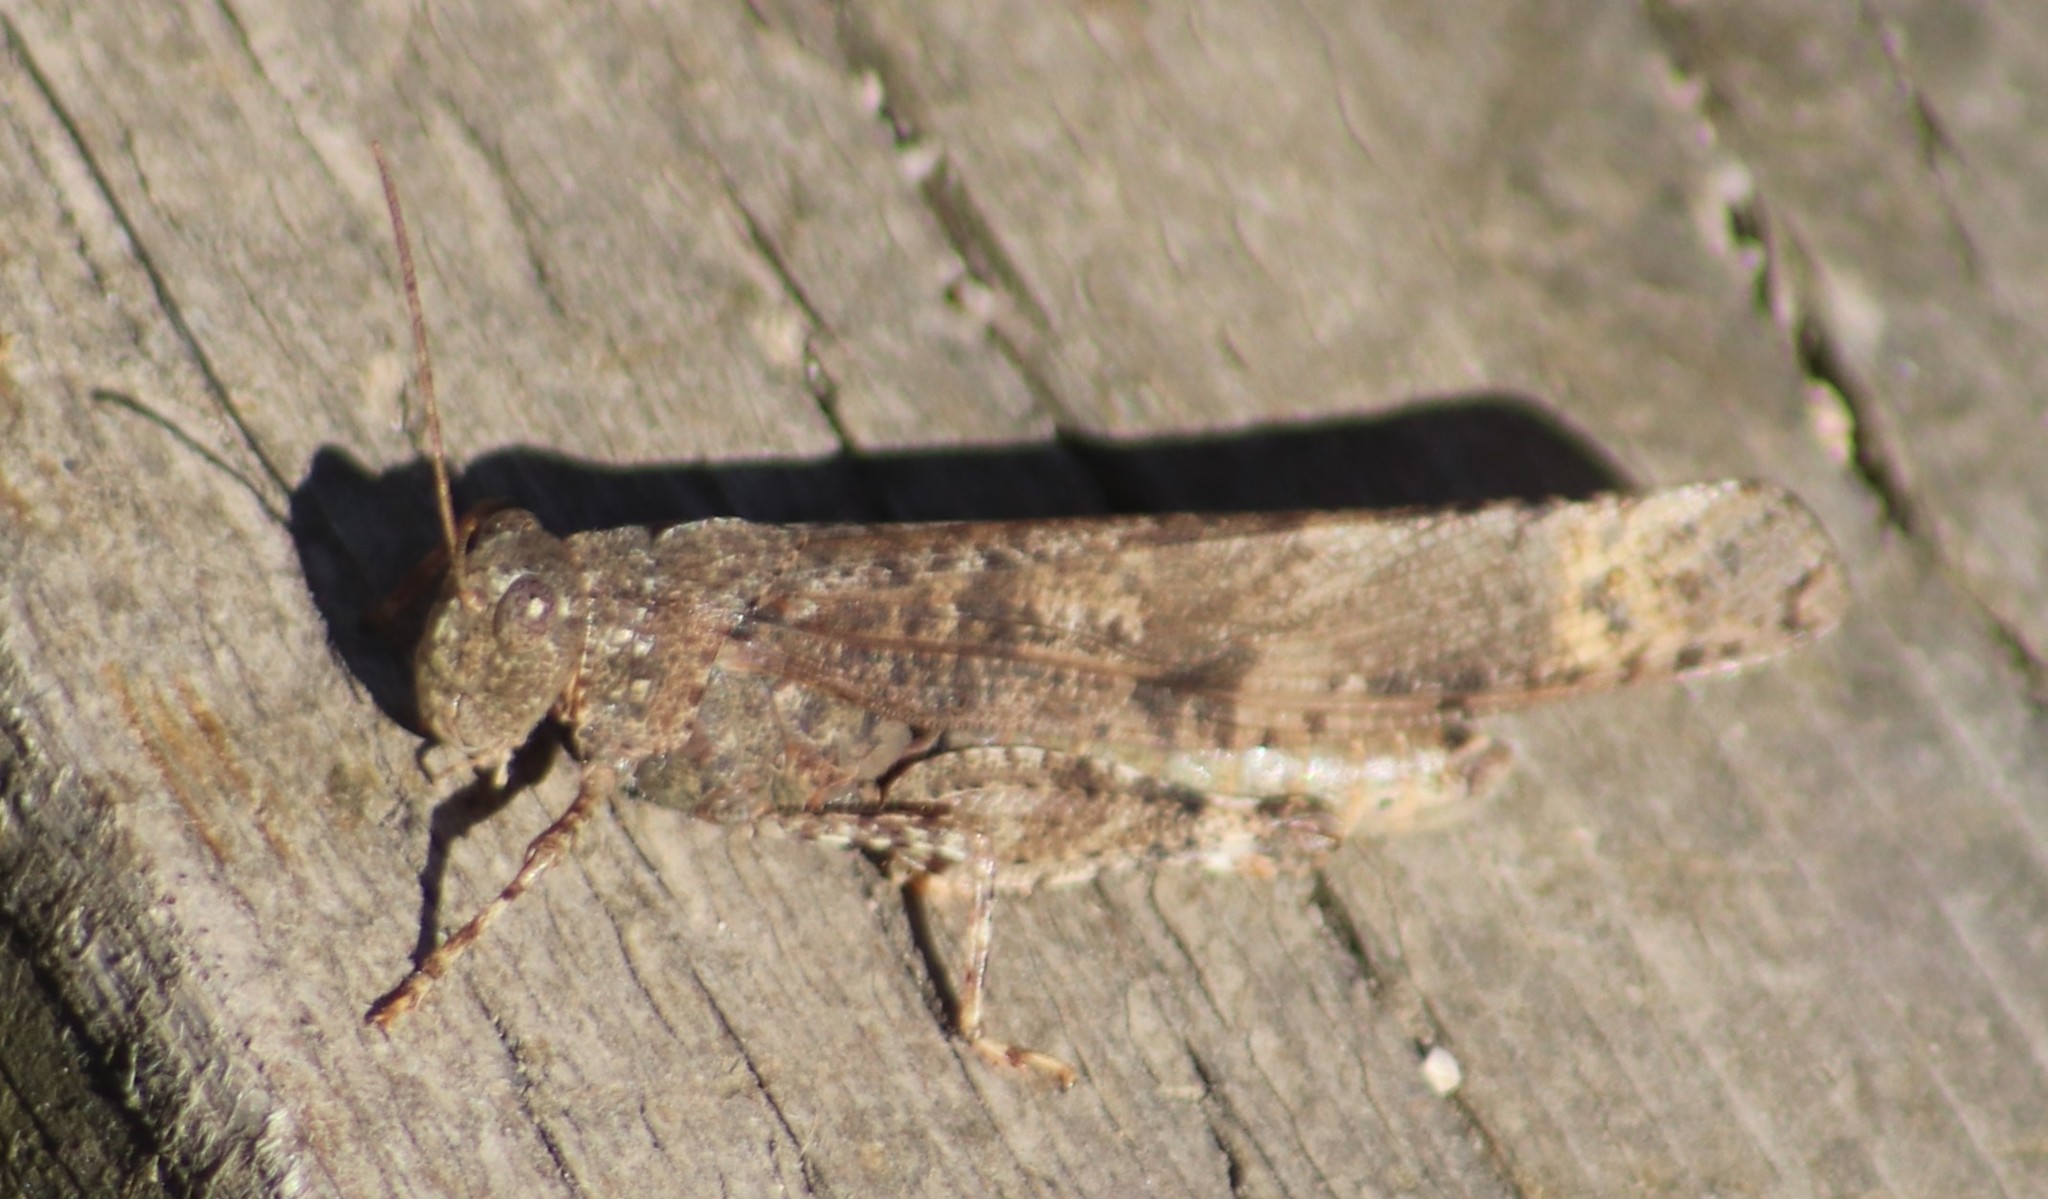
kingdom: Animalia
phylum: Arthropoda
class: Insecta
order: Orthoptera
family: Acrididae
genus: Dissosteira
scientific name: Dissosteira carolina
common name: Carolina grasshopper
